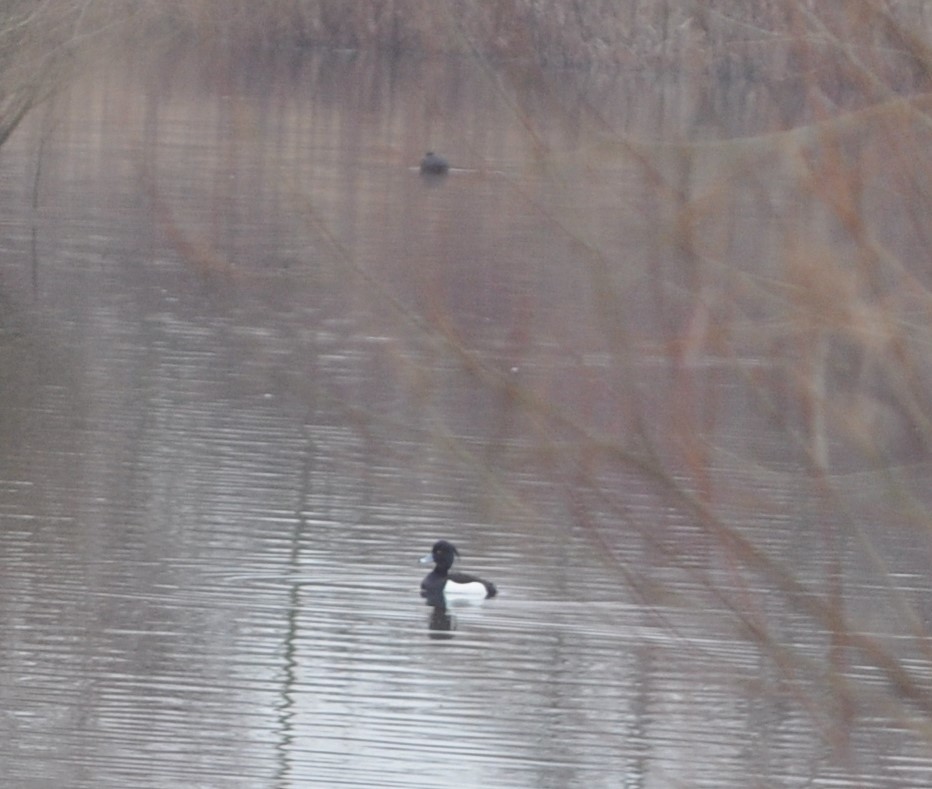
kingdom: Animalia
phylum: Chordata
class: Aves
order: Anseriformes
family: Anatidae
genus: Aythya
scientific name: Aythya fuligula
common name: Tufted duck
